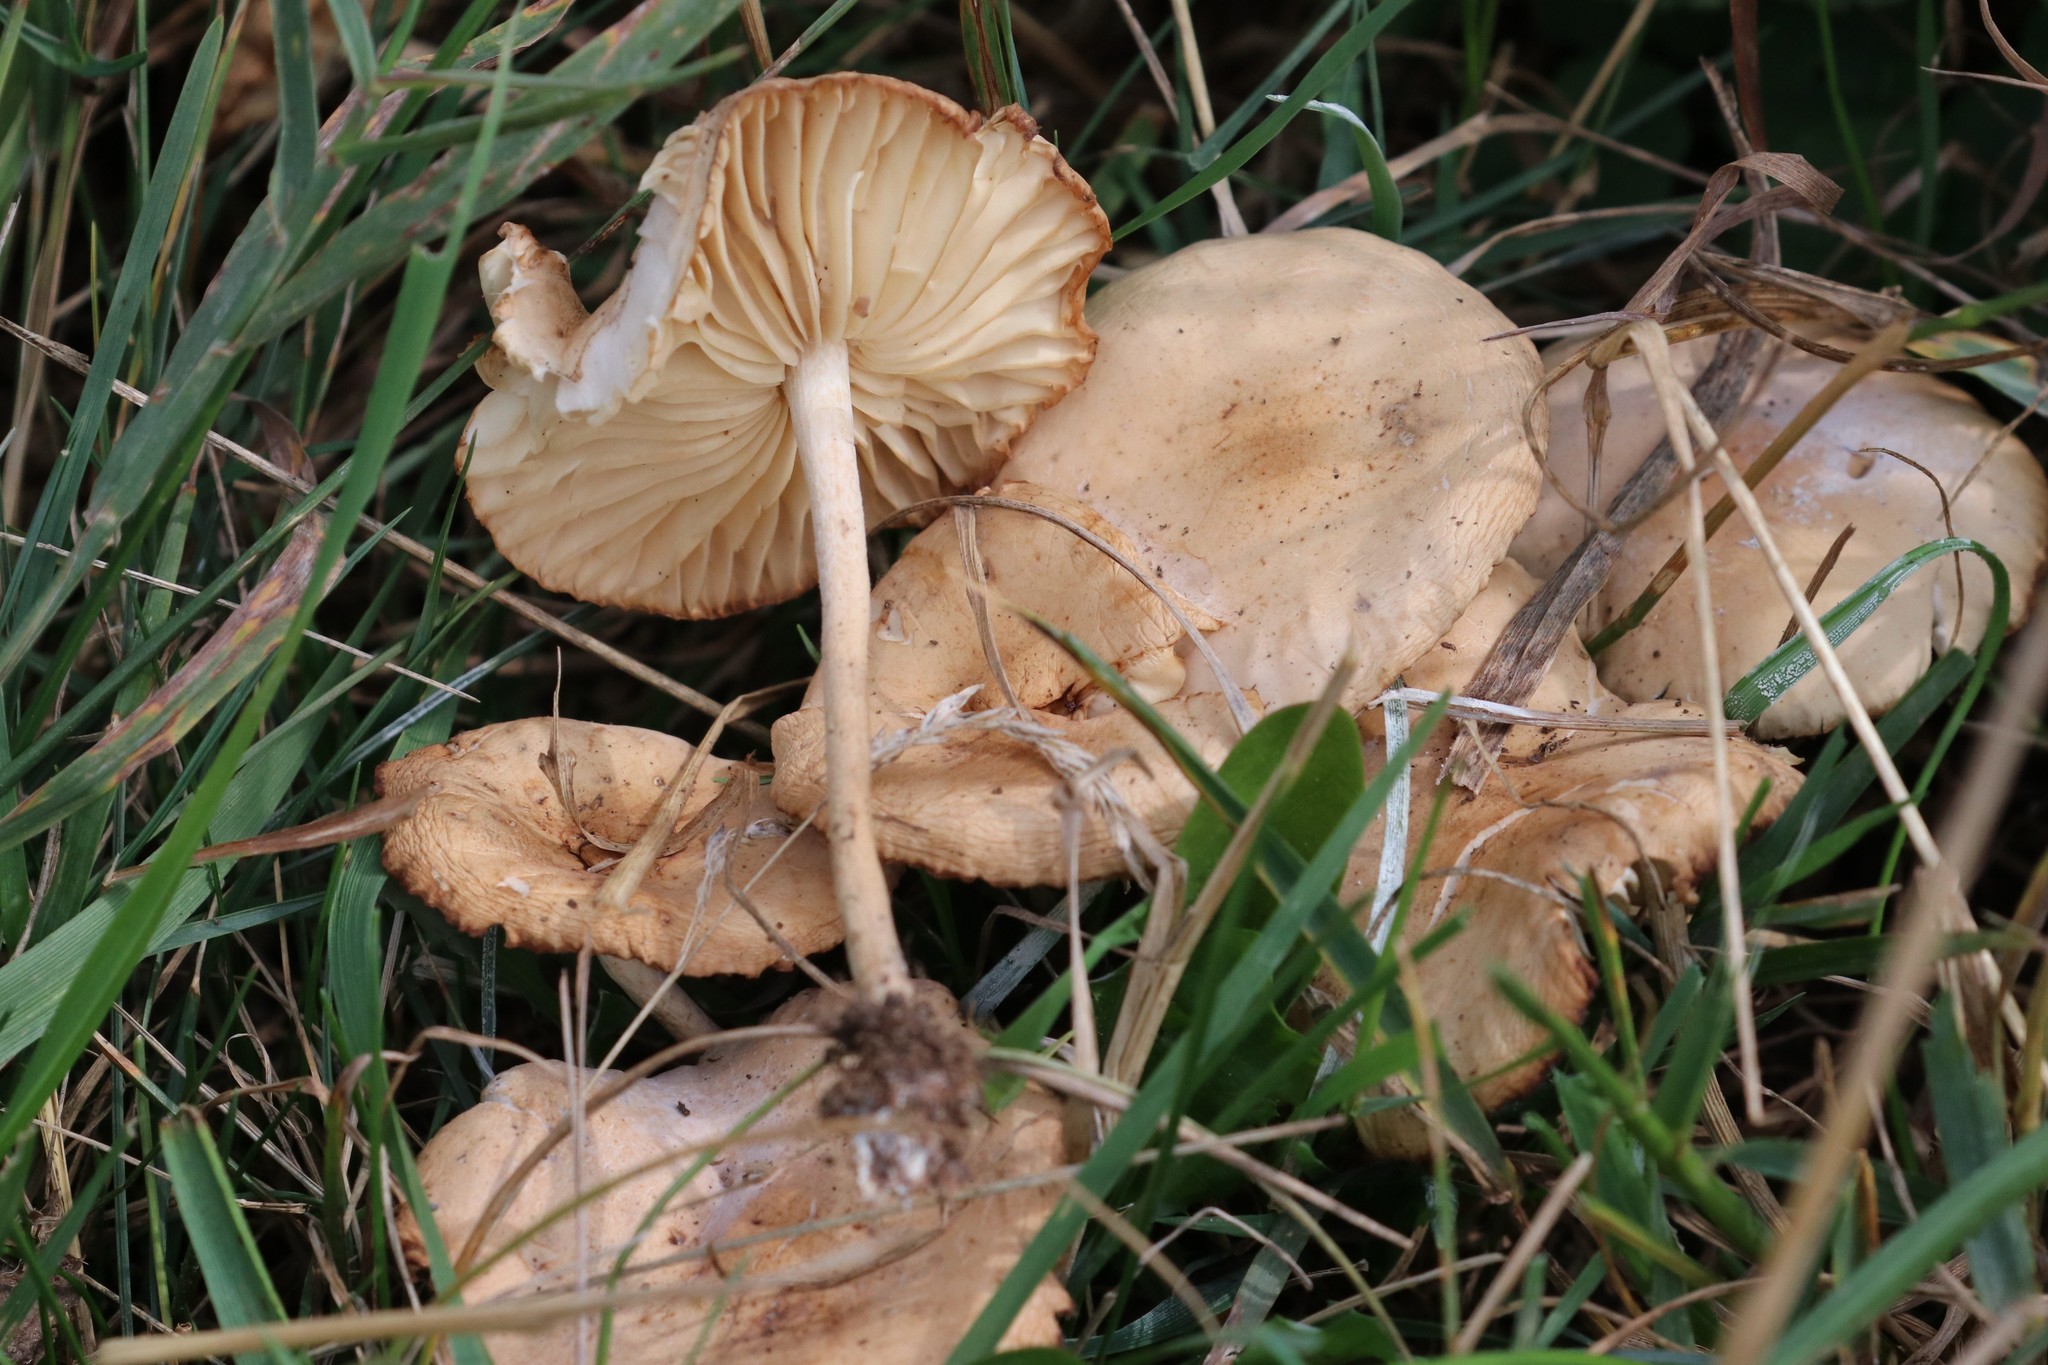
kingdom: Fungi
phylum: Basidiomycota
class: Agaricomycetes
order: Agaricales
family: Marasmiaceae
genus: Marasmius
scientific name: Marasmius oreades
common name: Fairy ring champignon
